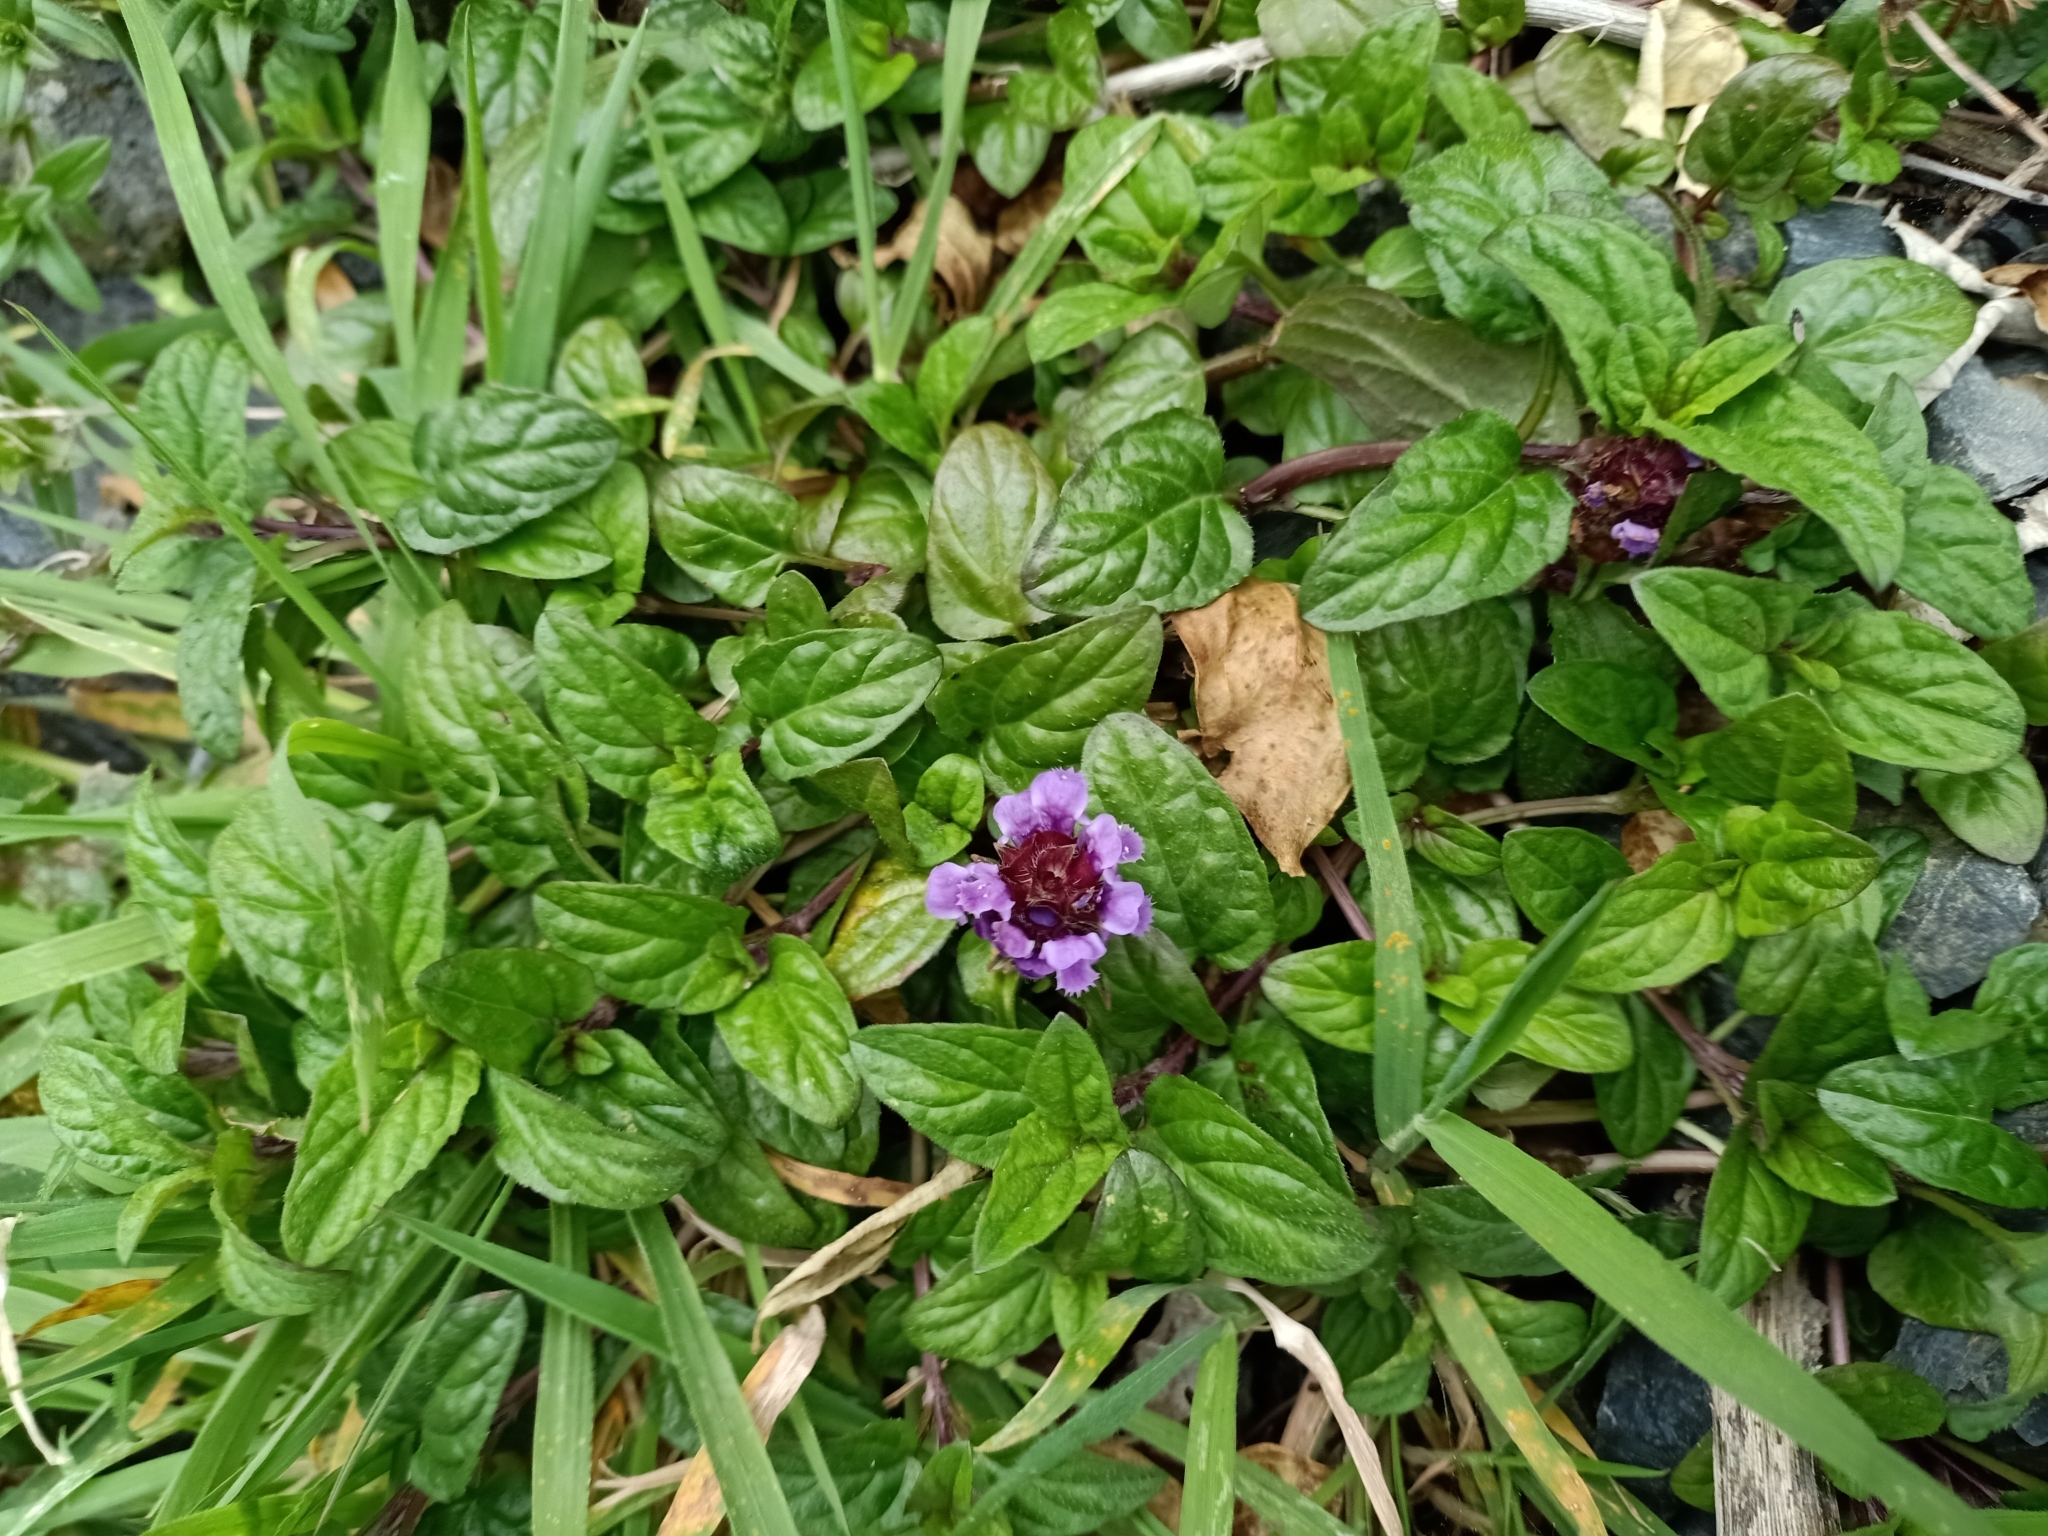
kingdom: Plantae
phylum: Tracheophyta
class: Magnoliopsida
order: Lamiales
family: Lamiaceae
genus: Prunella
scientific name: Prunella vulgaris
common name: Heal-all
